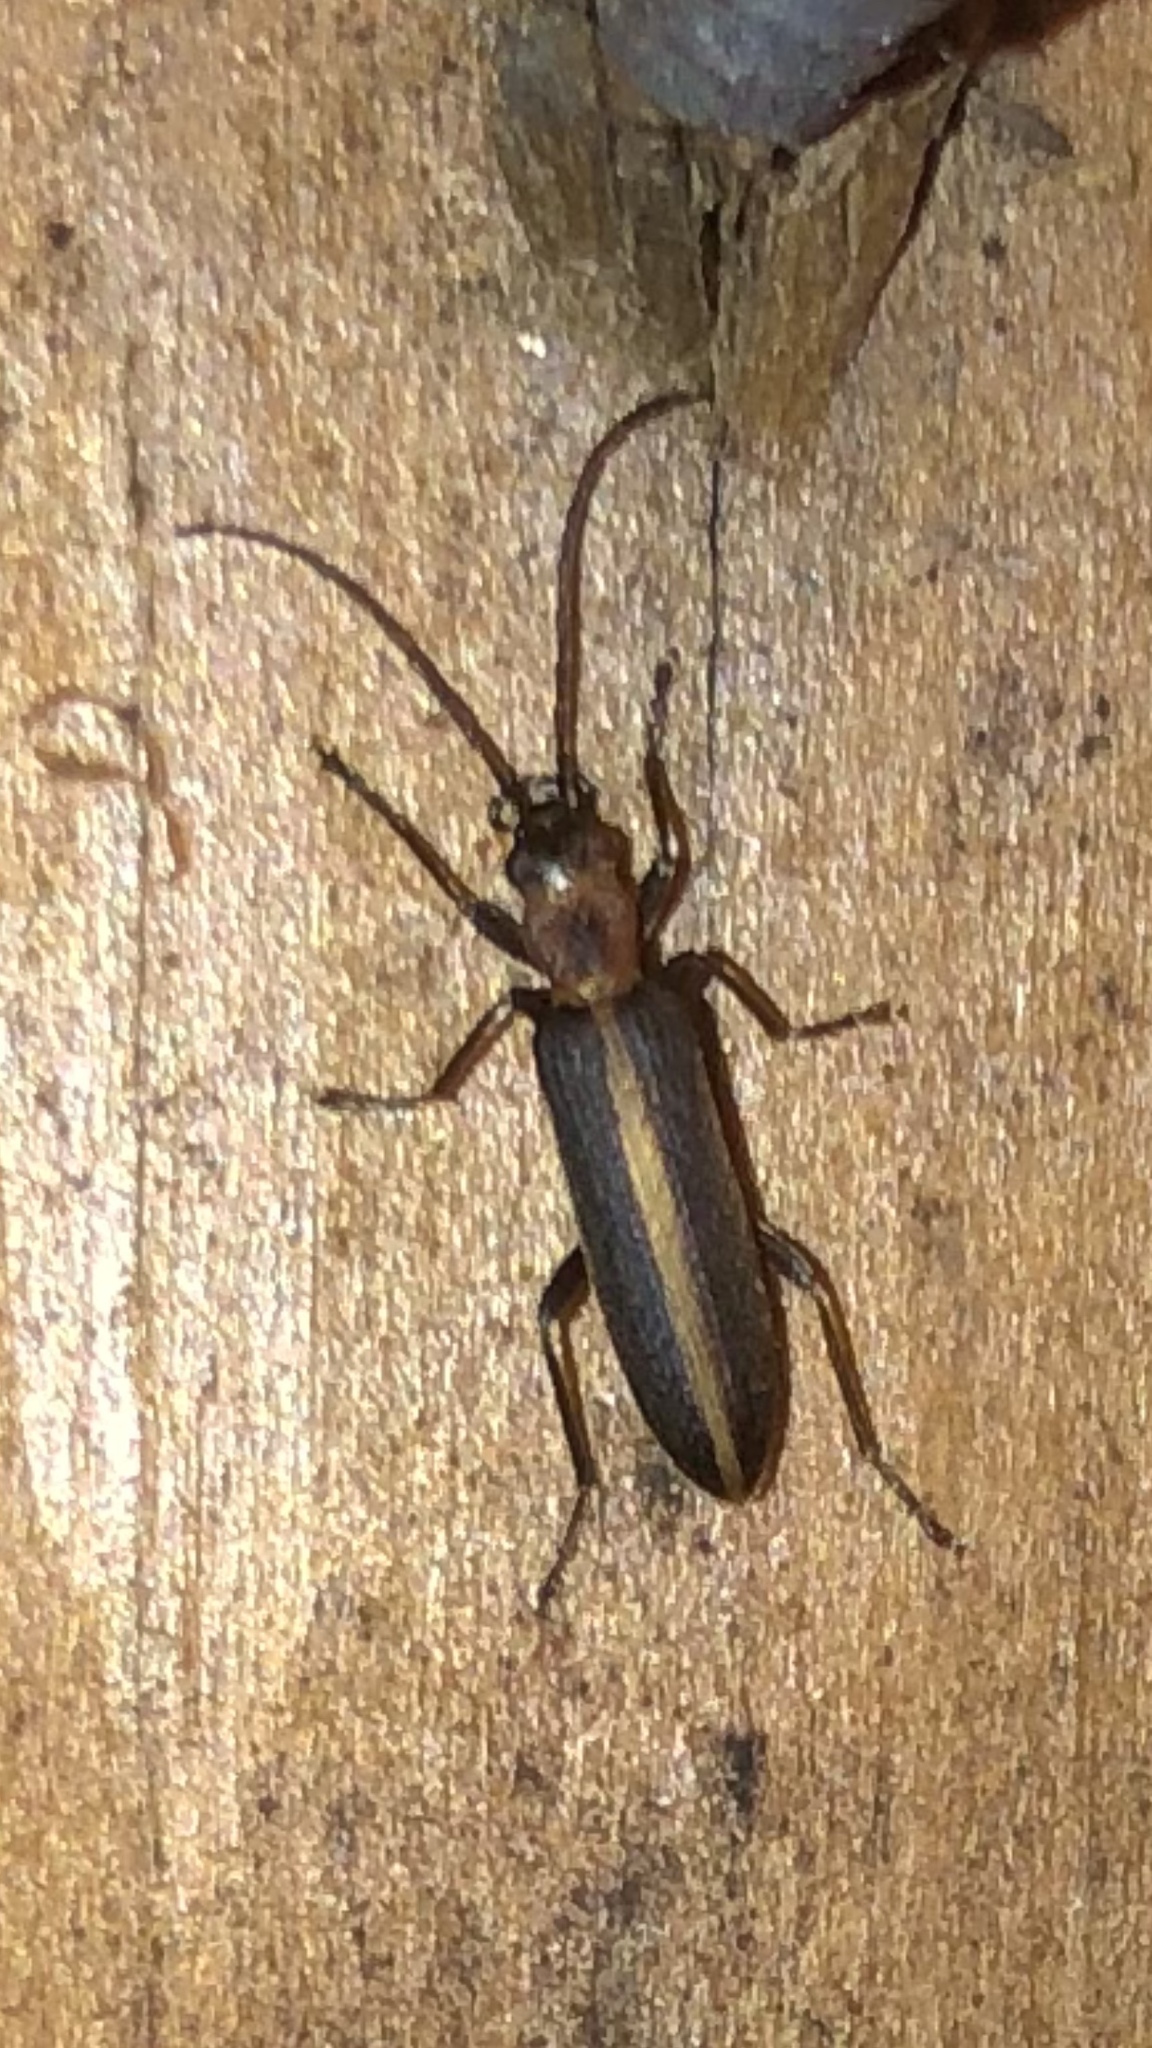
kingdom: Animalia
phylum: Arthropoda
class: Insecta
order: Coleoptera
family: Oedemeridae
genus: Oxycopis
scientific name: Oxycopis mimetica
